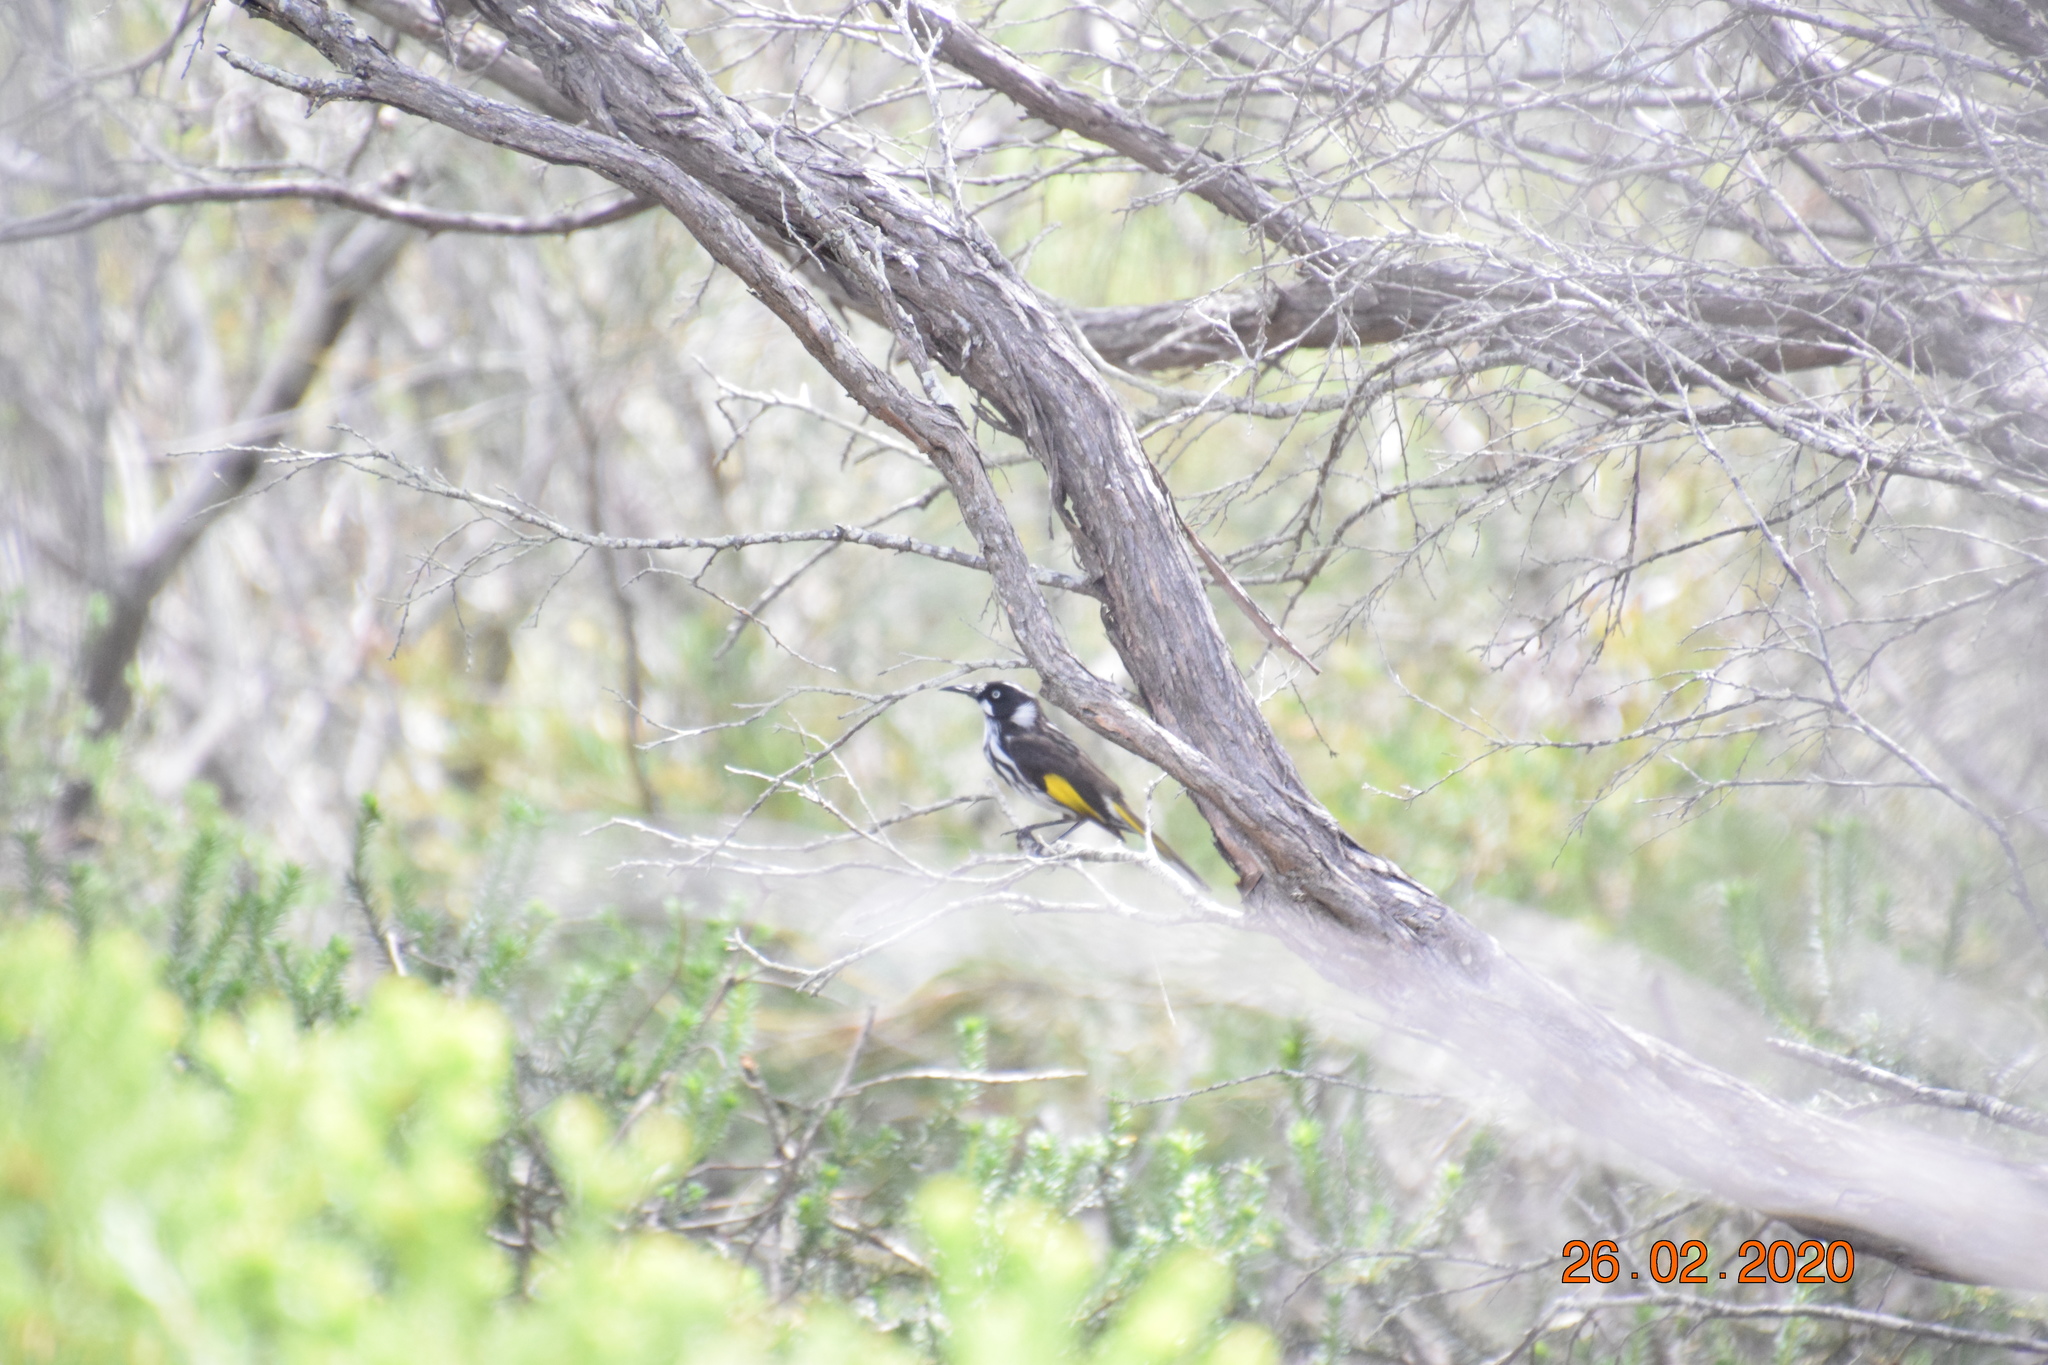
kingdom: Animalia
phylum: Chordata
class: Aves
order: Passeriformes
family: Meliphagidae
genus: Phylidonyris
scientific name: Phylidonyris novaehollandiae
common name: New holland honeyeater
